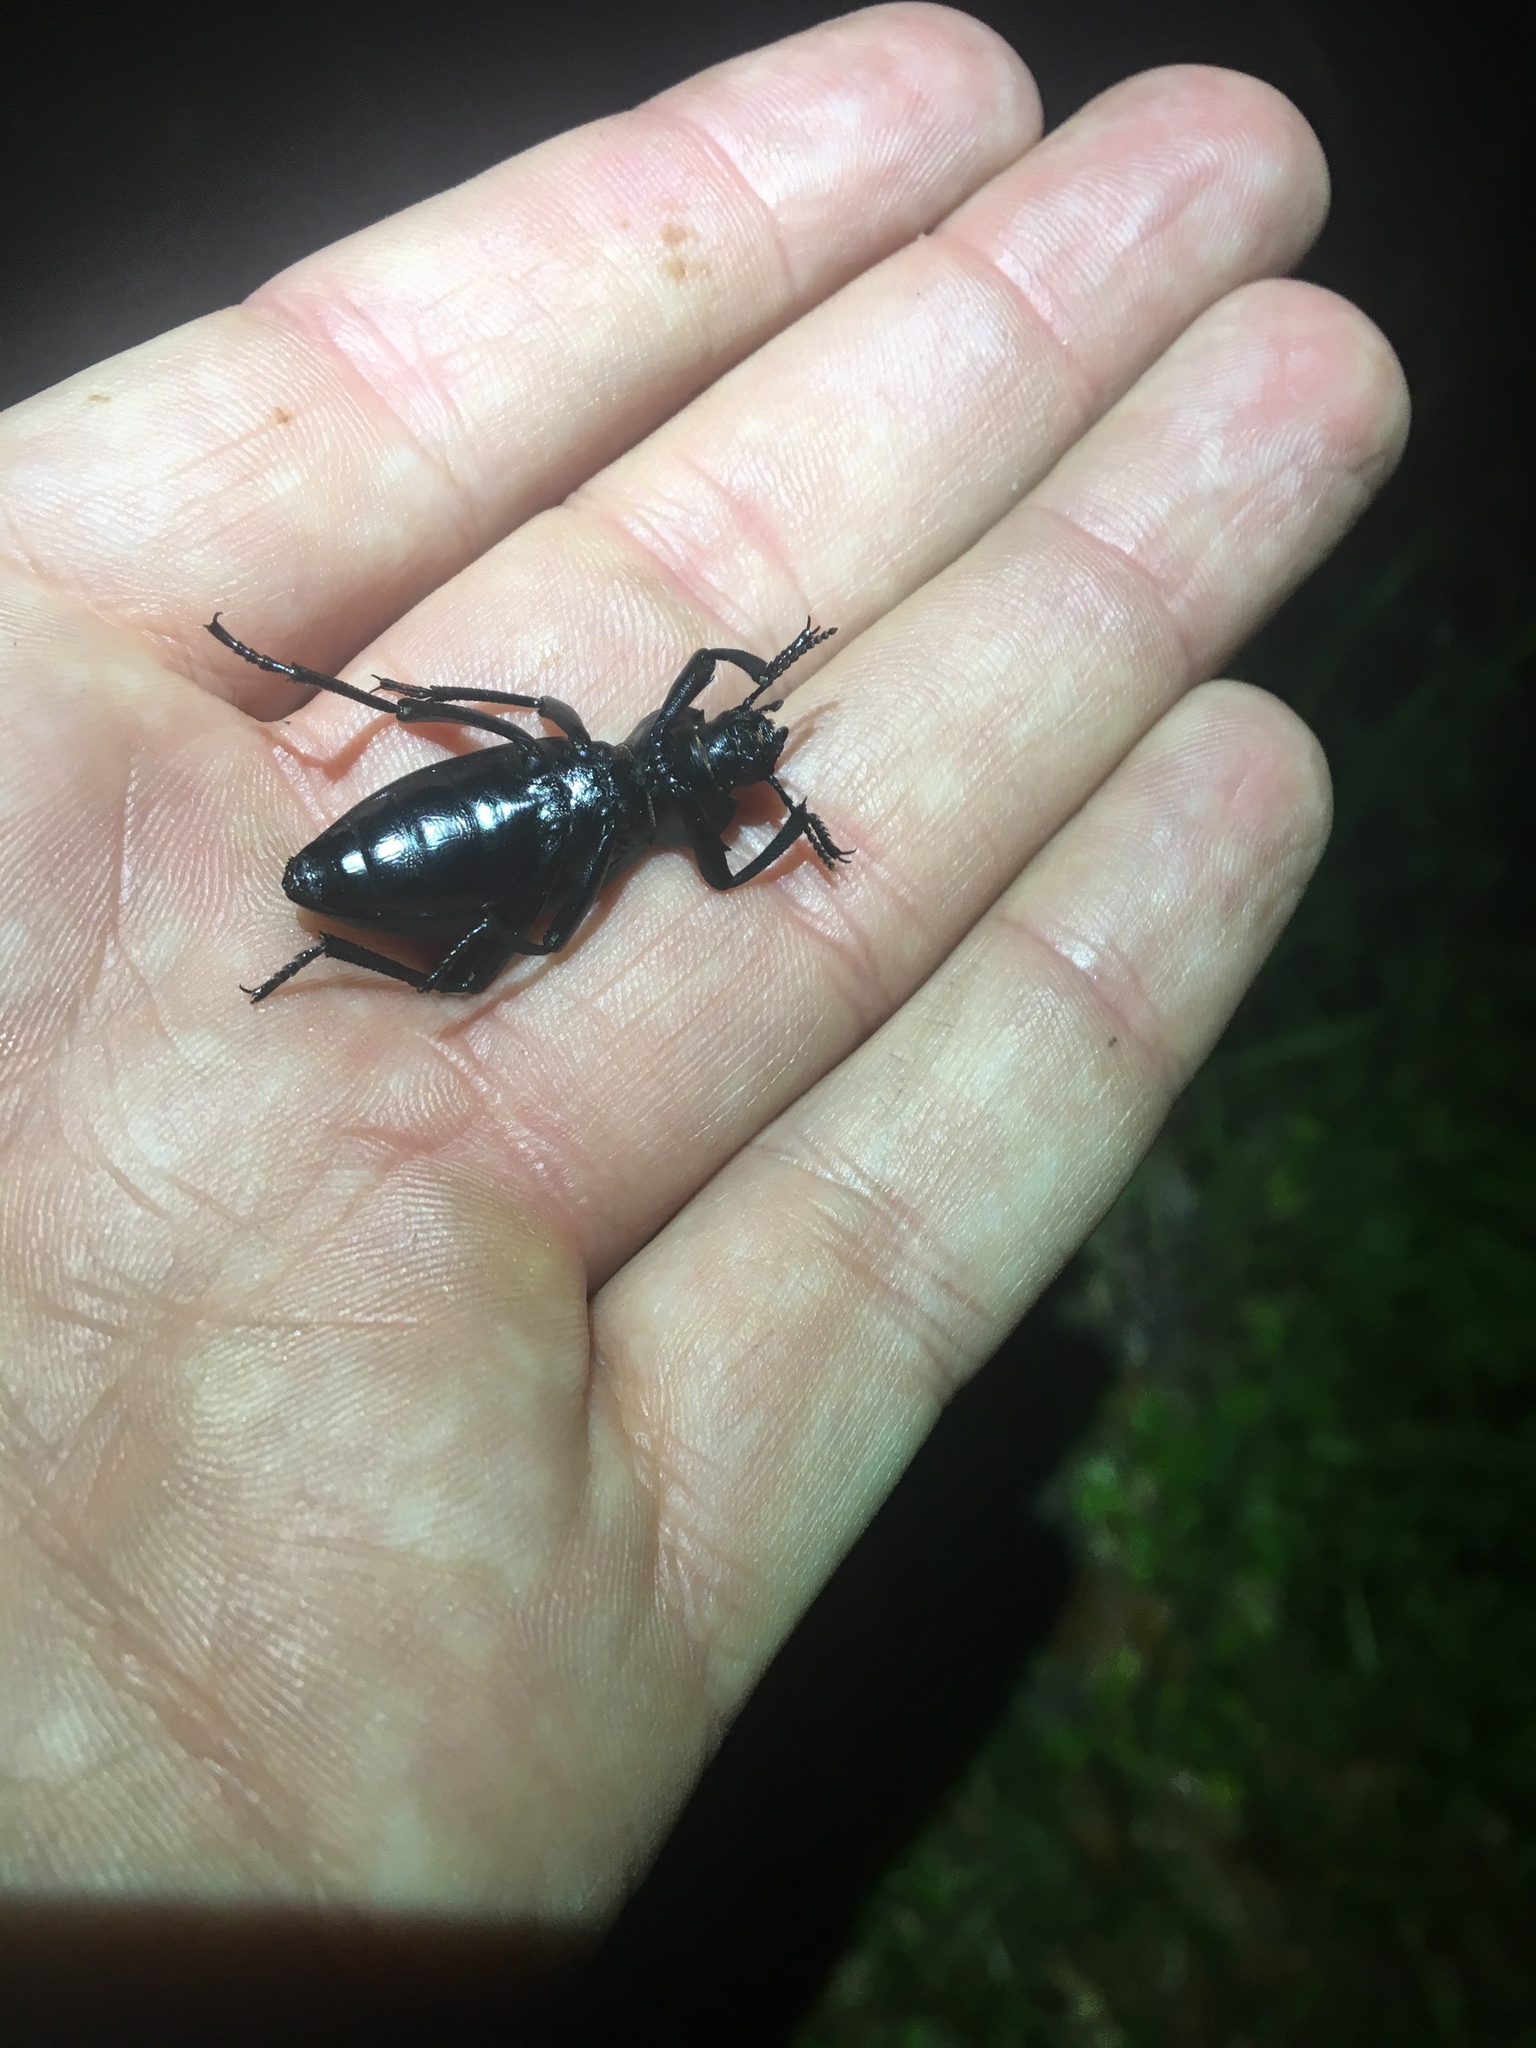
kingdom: Animalia
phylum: Arthropoda
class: Insecta
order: Coleoptera
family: Tenebrionidae
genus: Eleodes
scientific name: Eleodes dentipes
